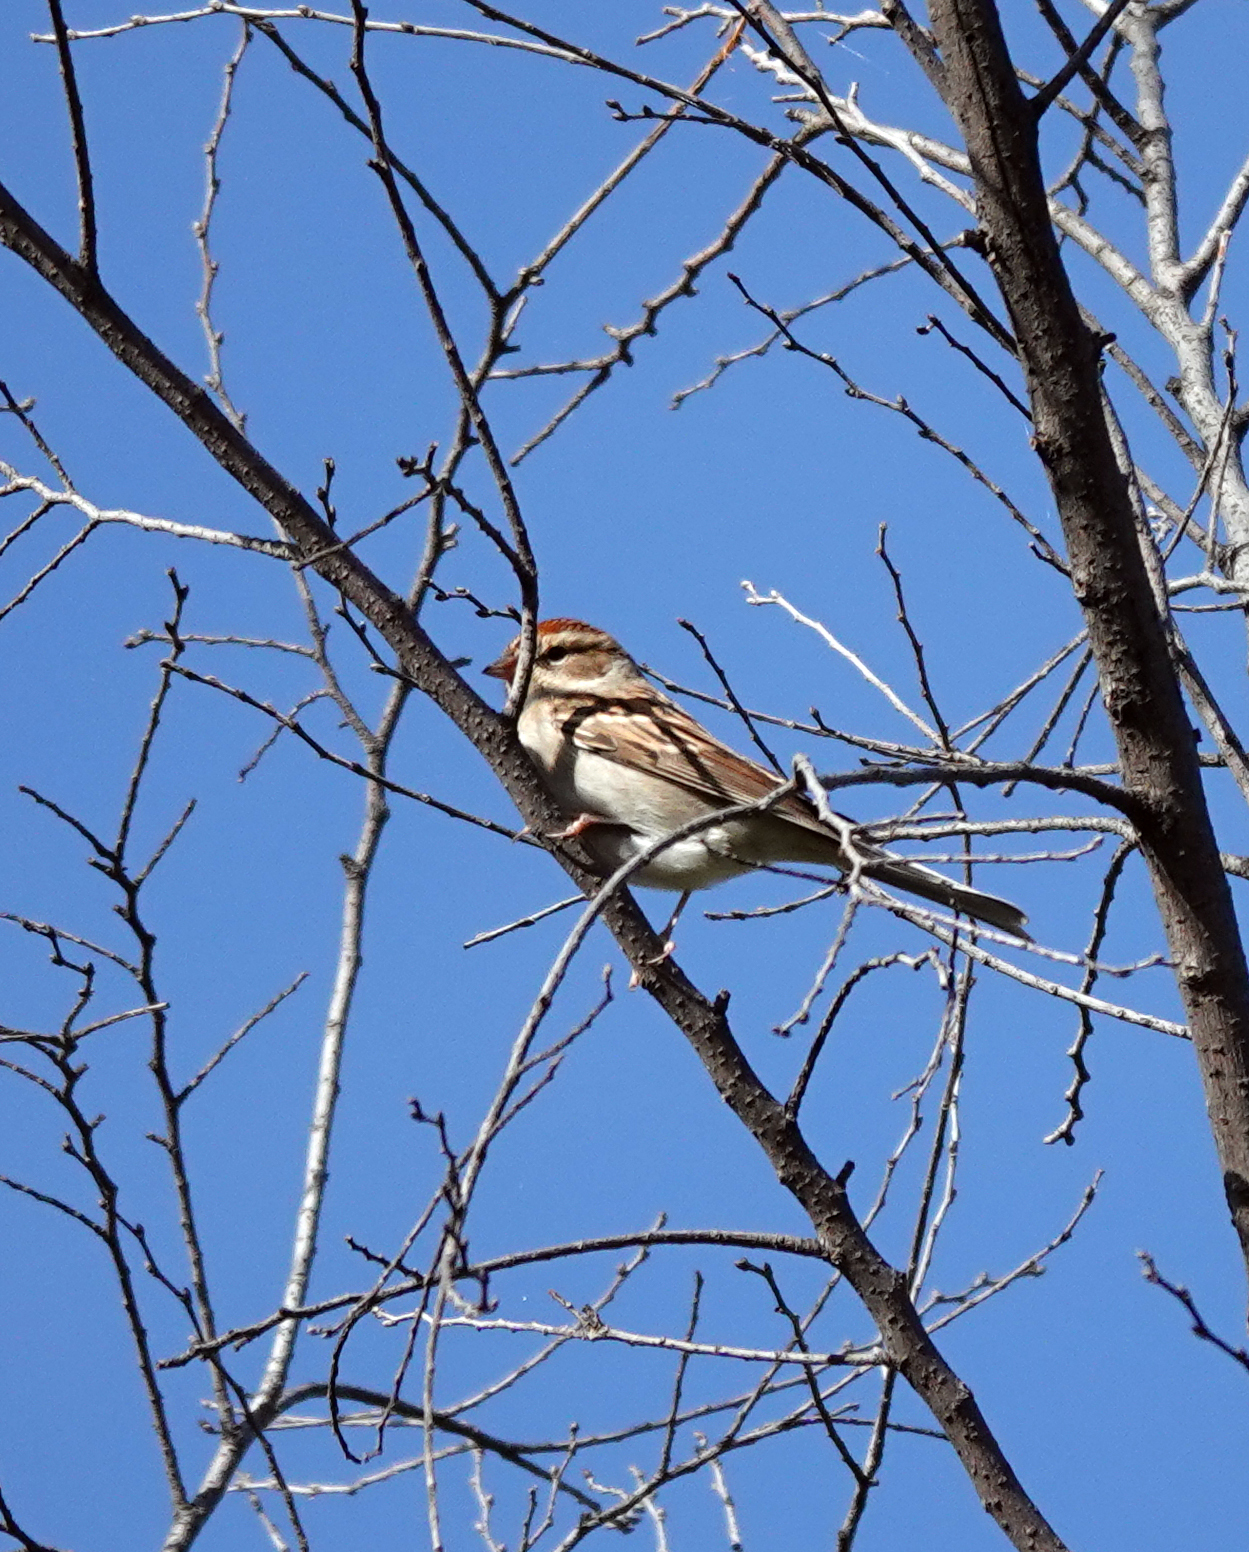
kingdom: Animalia
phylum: Chordata
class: Aves
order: Passeriformes
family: Passerellidae
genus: Spizella
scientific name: Spizella passerina
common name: Chipping sparrow
